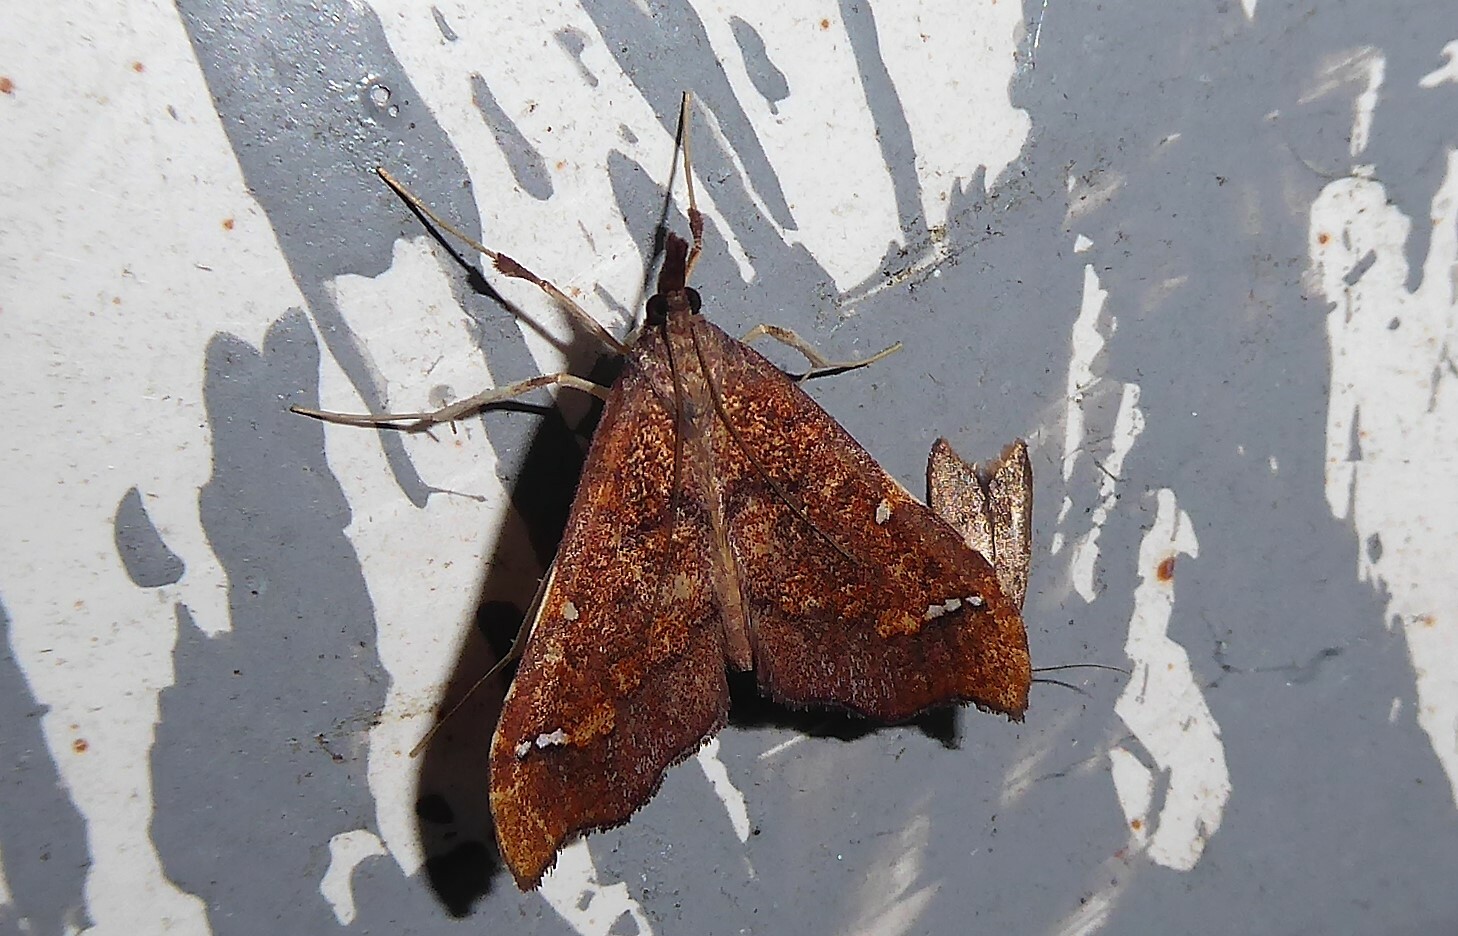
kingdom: Animalia
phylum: Arthropoda
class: Insecta
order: Lepidoptera
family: Crambidae
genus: Deana
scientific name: Deana hybreasalis
